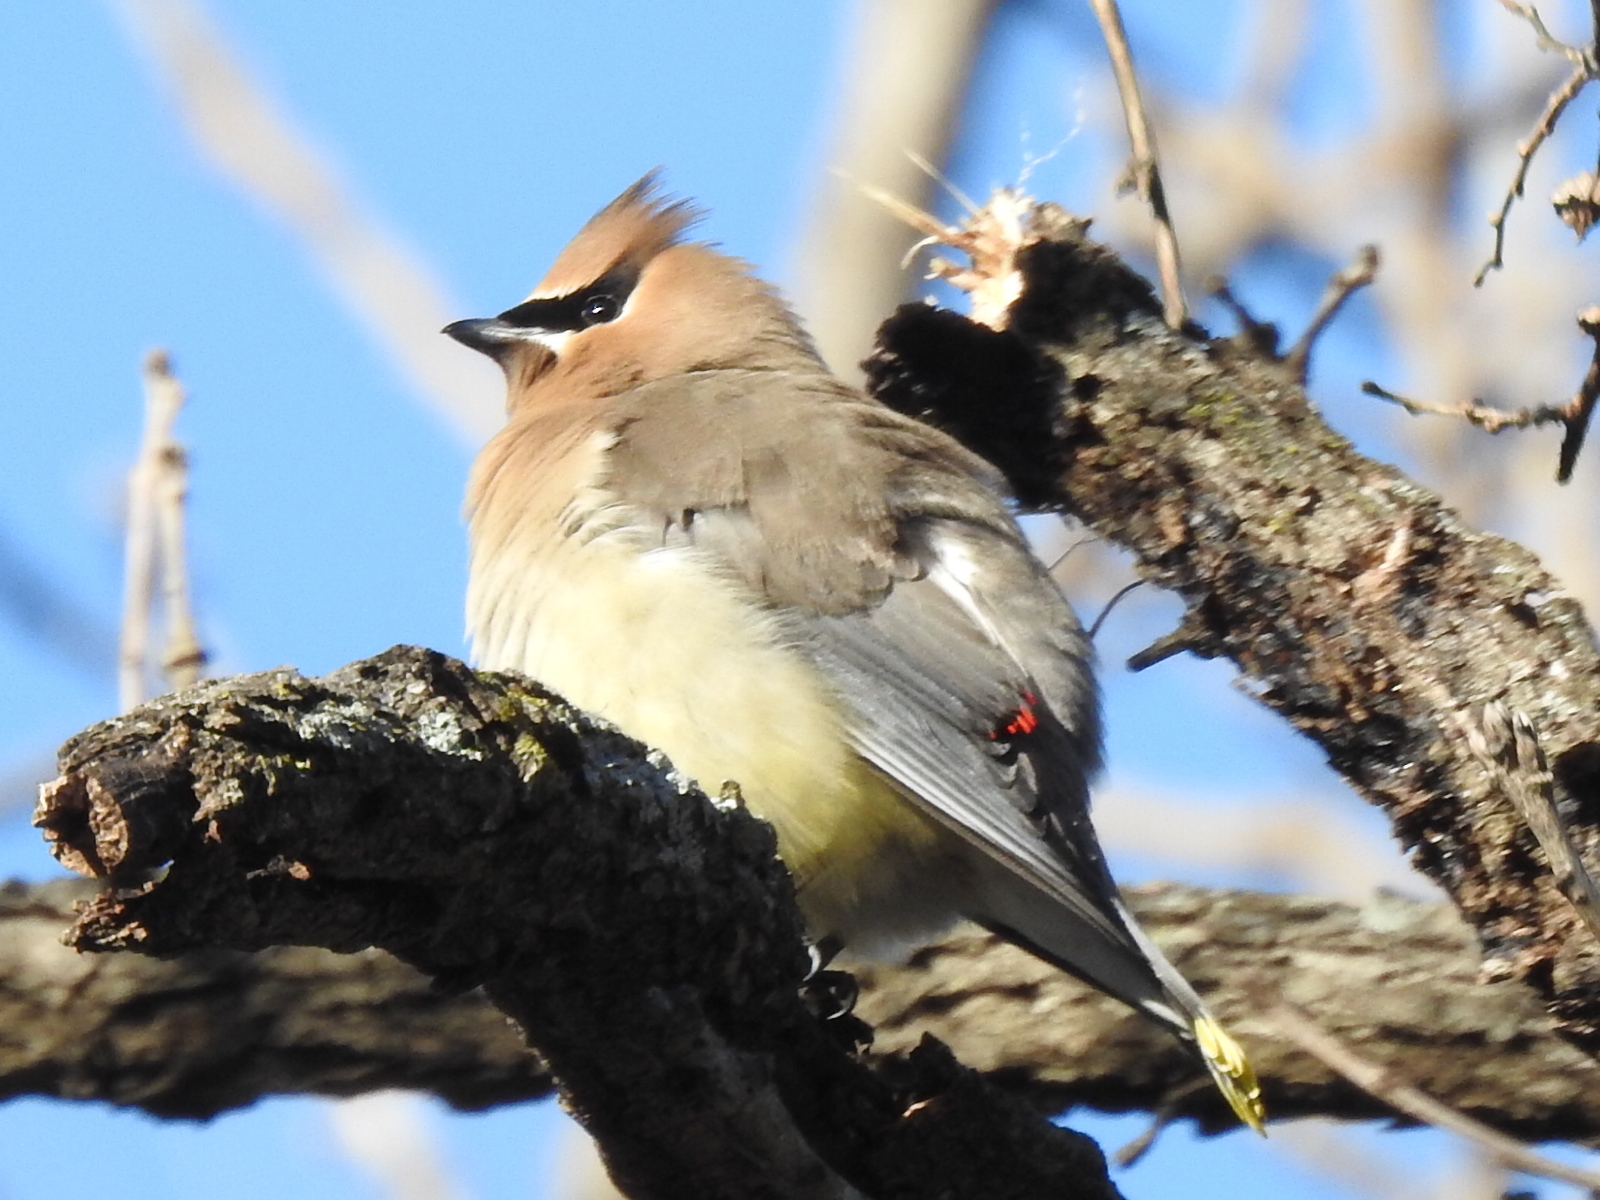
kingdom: Animalia
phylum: Chordata
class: Aves
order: Passeriformes
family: Bombycillidae
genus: Bombycilla
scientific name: Bombycilla cedrorum
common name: Cedar waxwing
